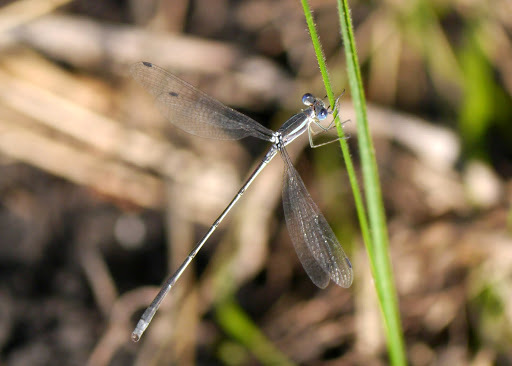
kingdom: Animalia
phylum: Arthropoda
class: Insecta
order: Odonata
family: Lestidae
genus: Lestes
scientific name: Lestes alacer
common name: Plateau spreadwing
